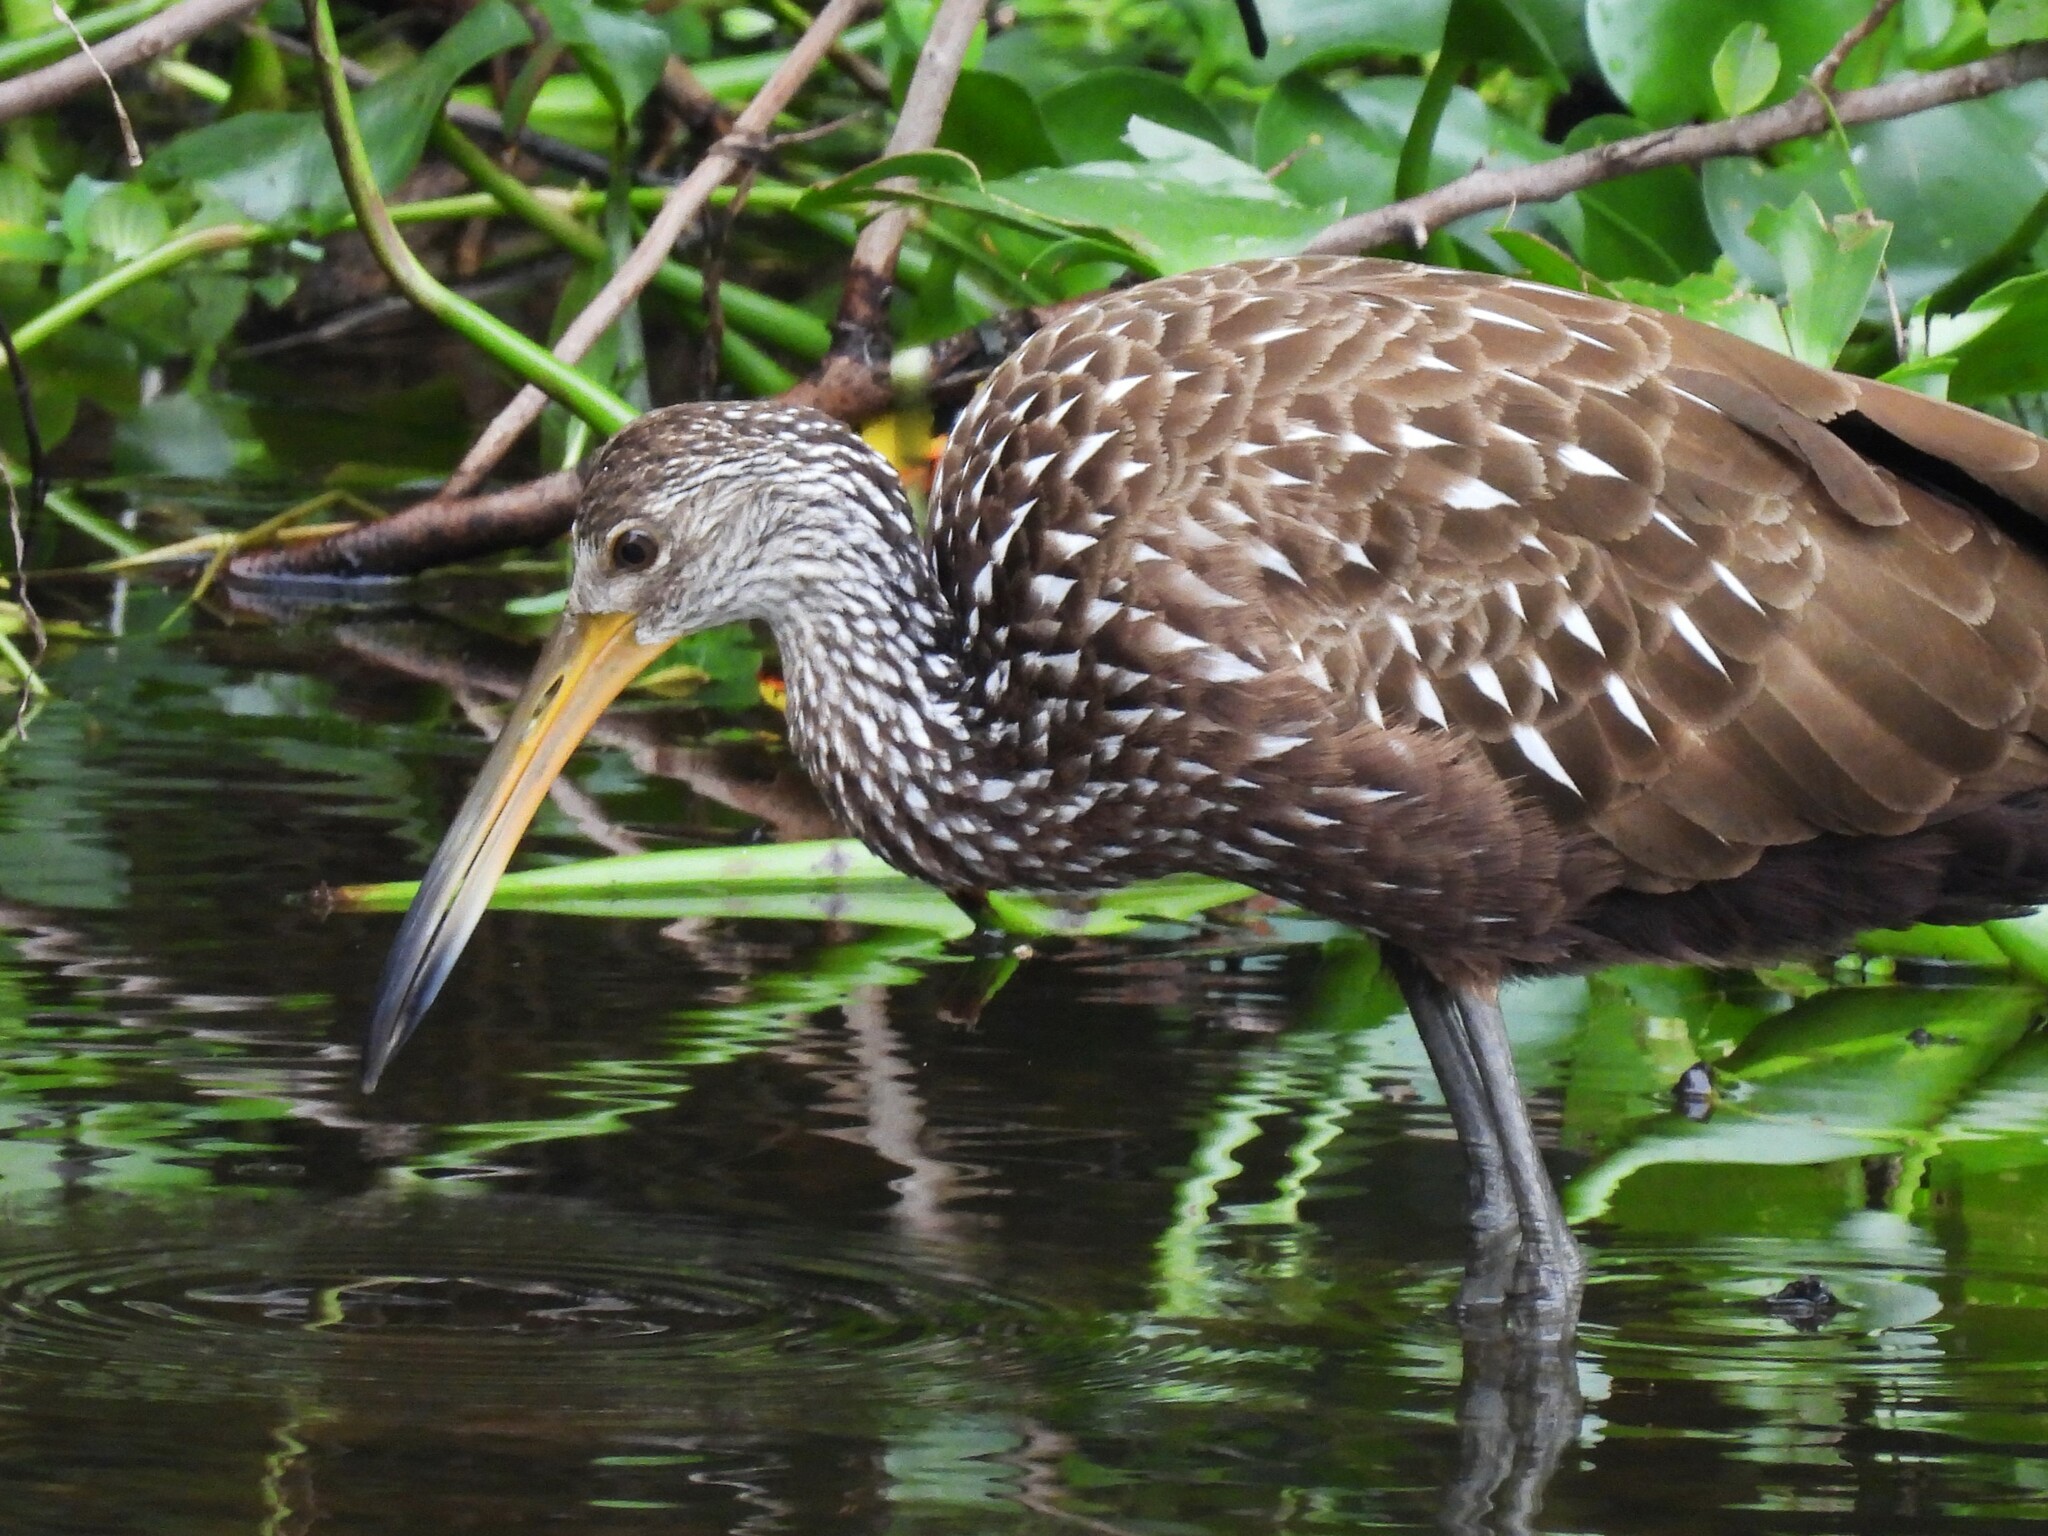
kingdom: Animalia
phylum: Chordata
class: Aves
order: Gruiformes
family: Aramidae
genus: Aramus
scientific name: Aramus guarauna
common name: Limpkin
